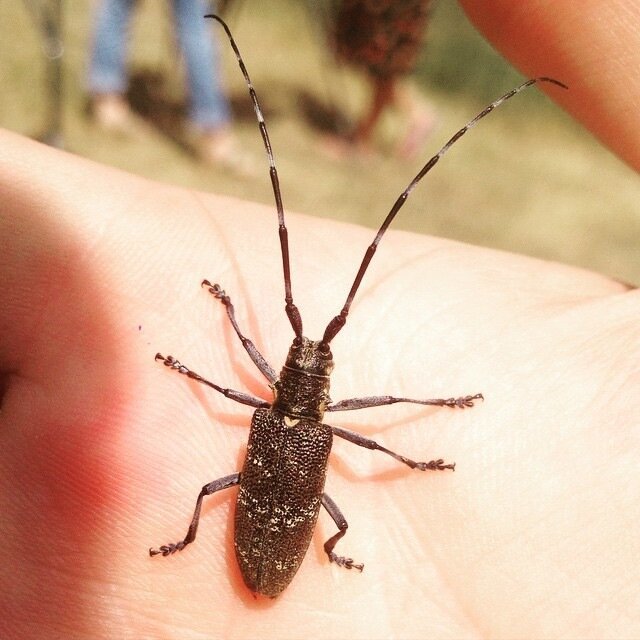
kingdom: Animalia
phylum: Arthropoda
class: Insecta
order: Coleoptera
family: Cerambycidae
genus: Monochamus
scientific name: Monochamus galloprovincialis
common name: Pine sawyer
